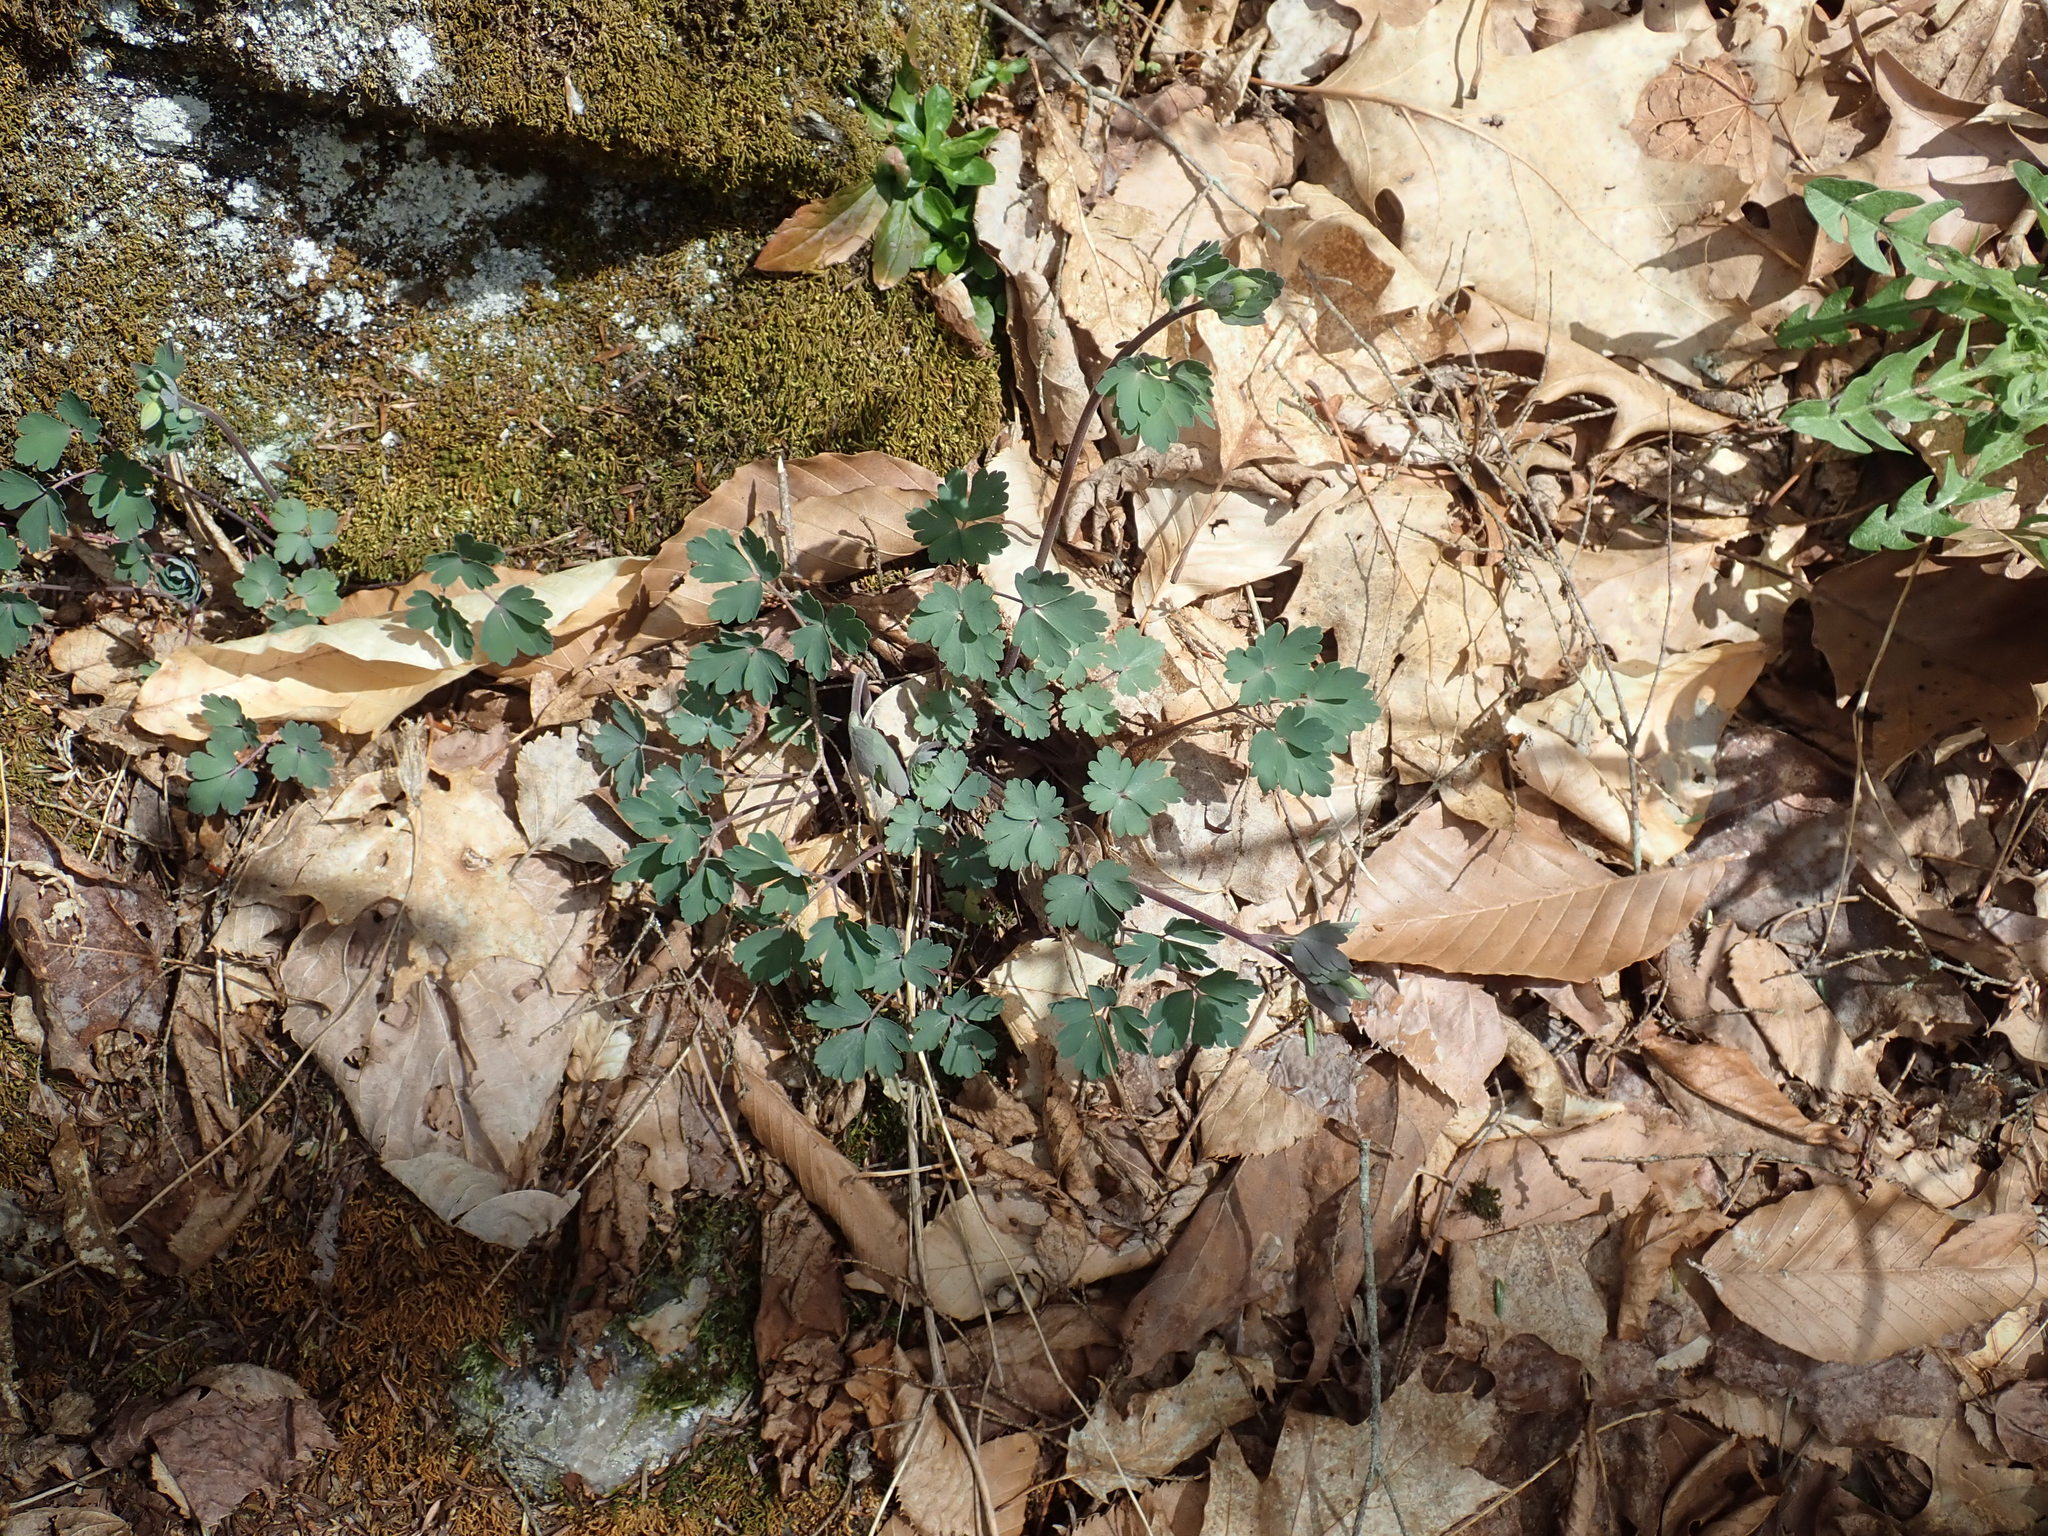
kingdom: Plantae
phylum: Tracheophyta
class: Magnoliopsida
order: Ranunculales
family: Ranunculaceae
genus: Aquilegia
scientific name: Aquilegia canadensis
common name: American columbine
